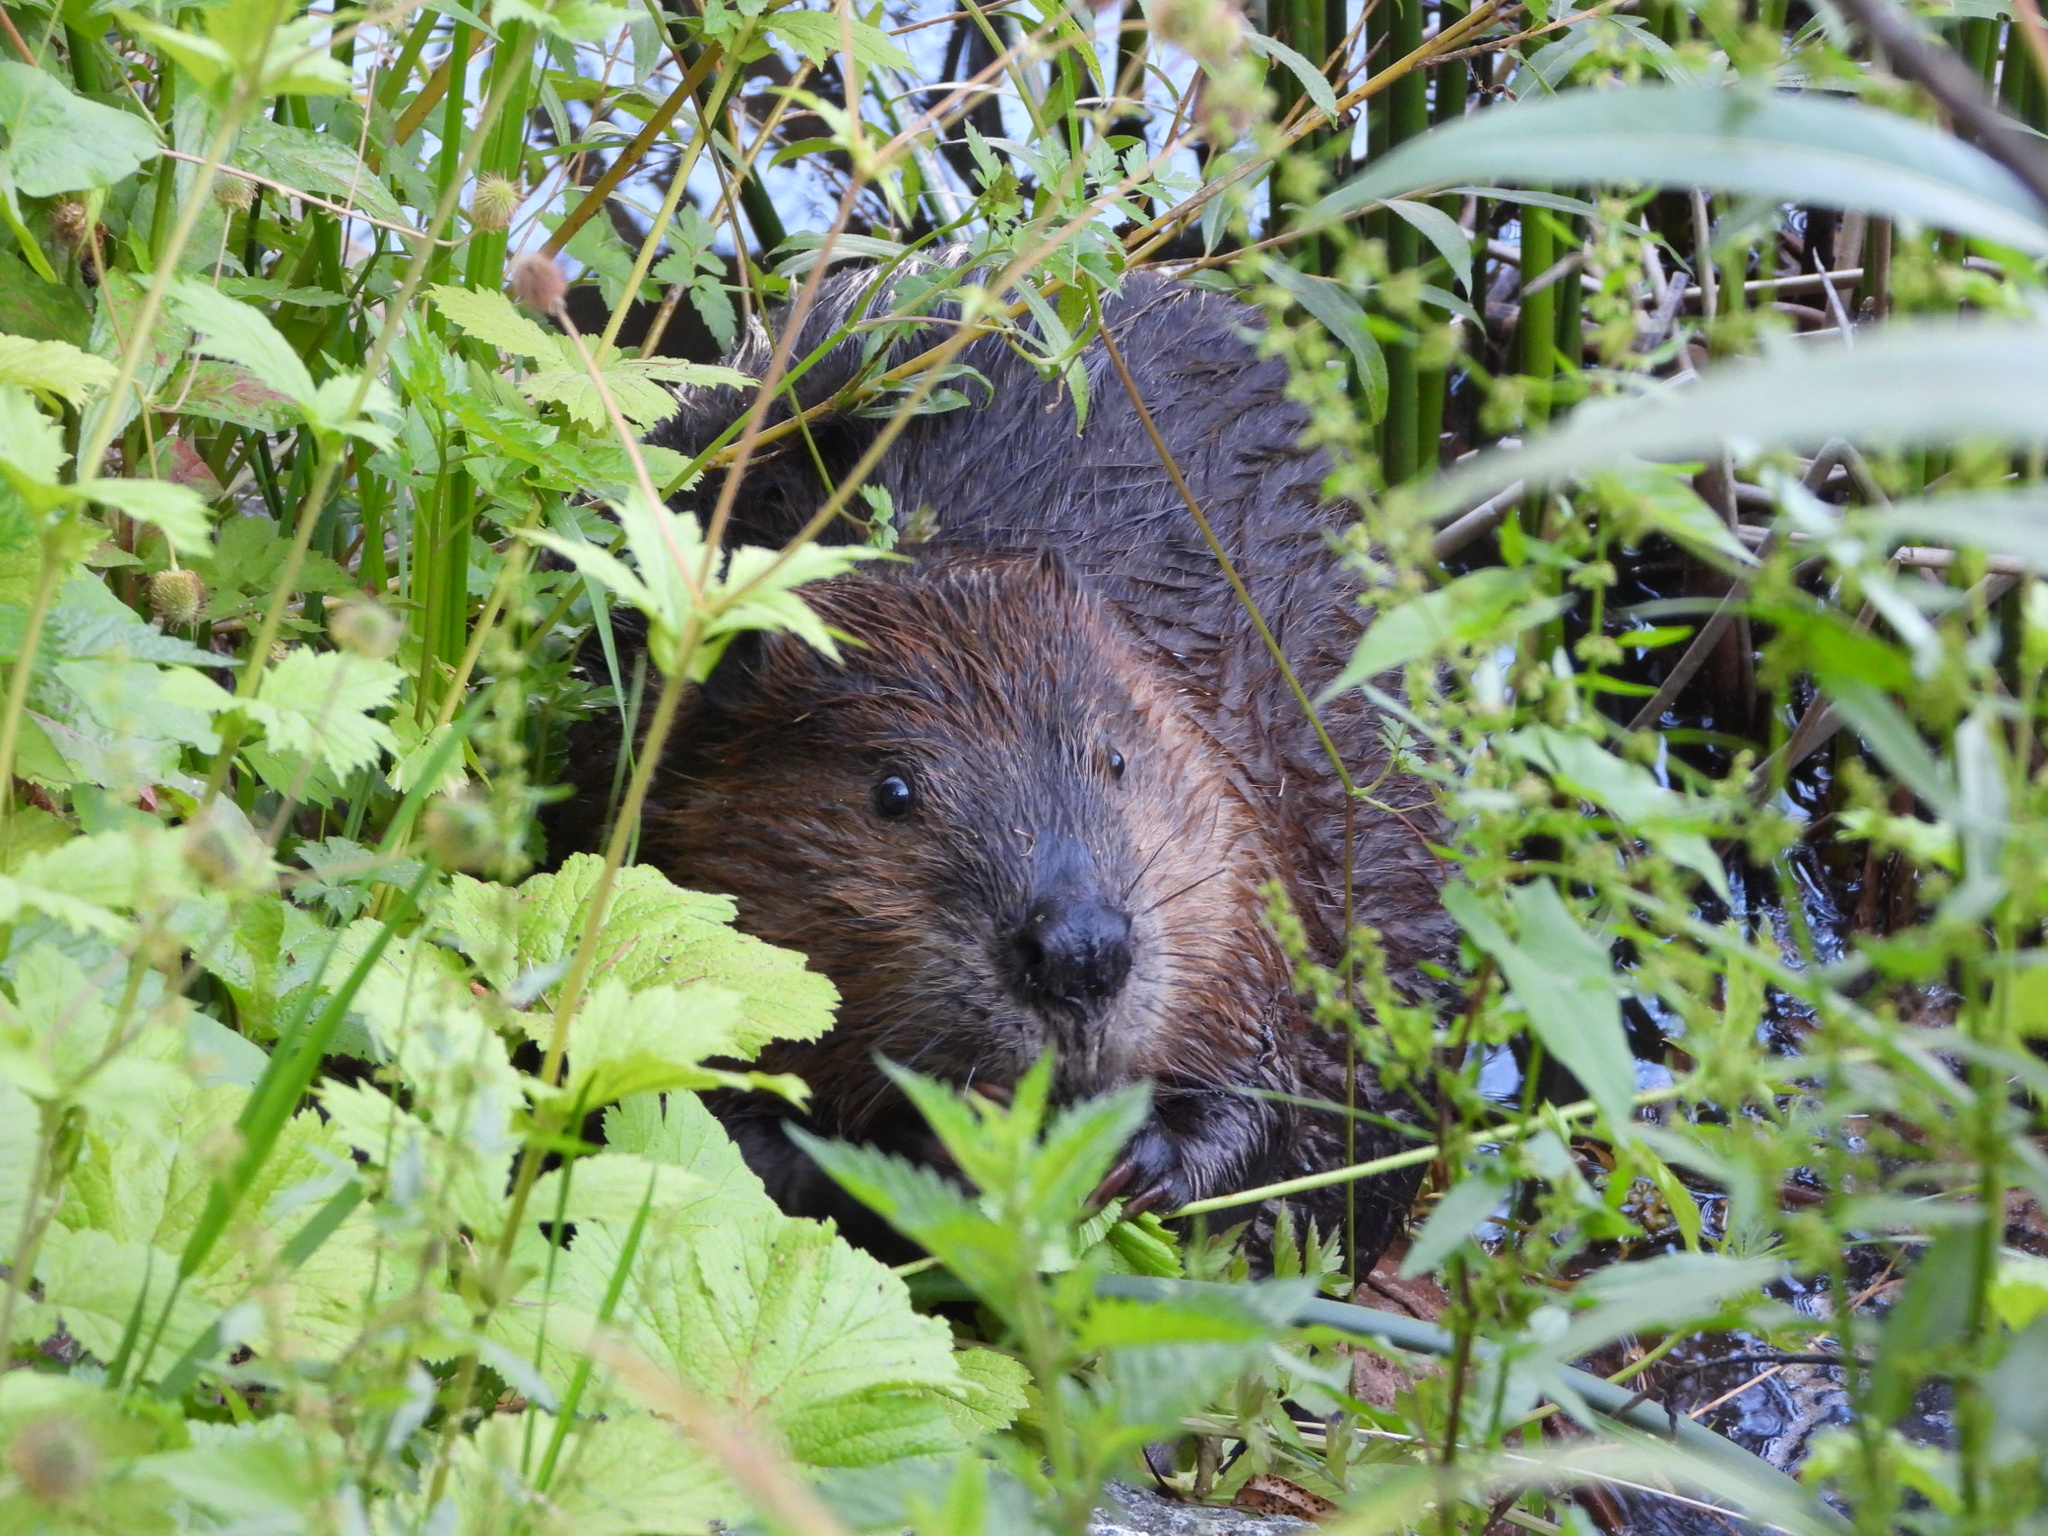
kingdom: Animalia
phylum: Chordata
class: Mammalia
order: Rodentia
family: Castoridae
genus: Castor
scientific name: Castor canadensis
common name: American beaver
